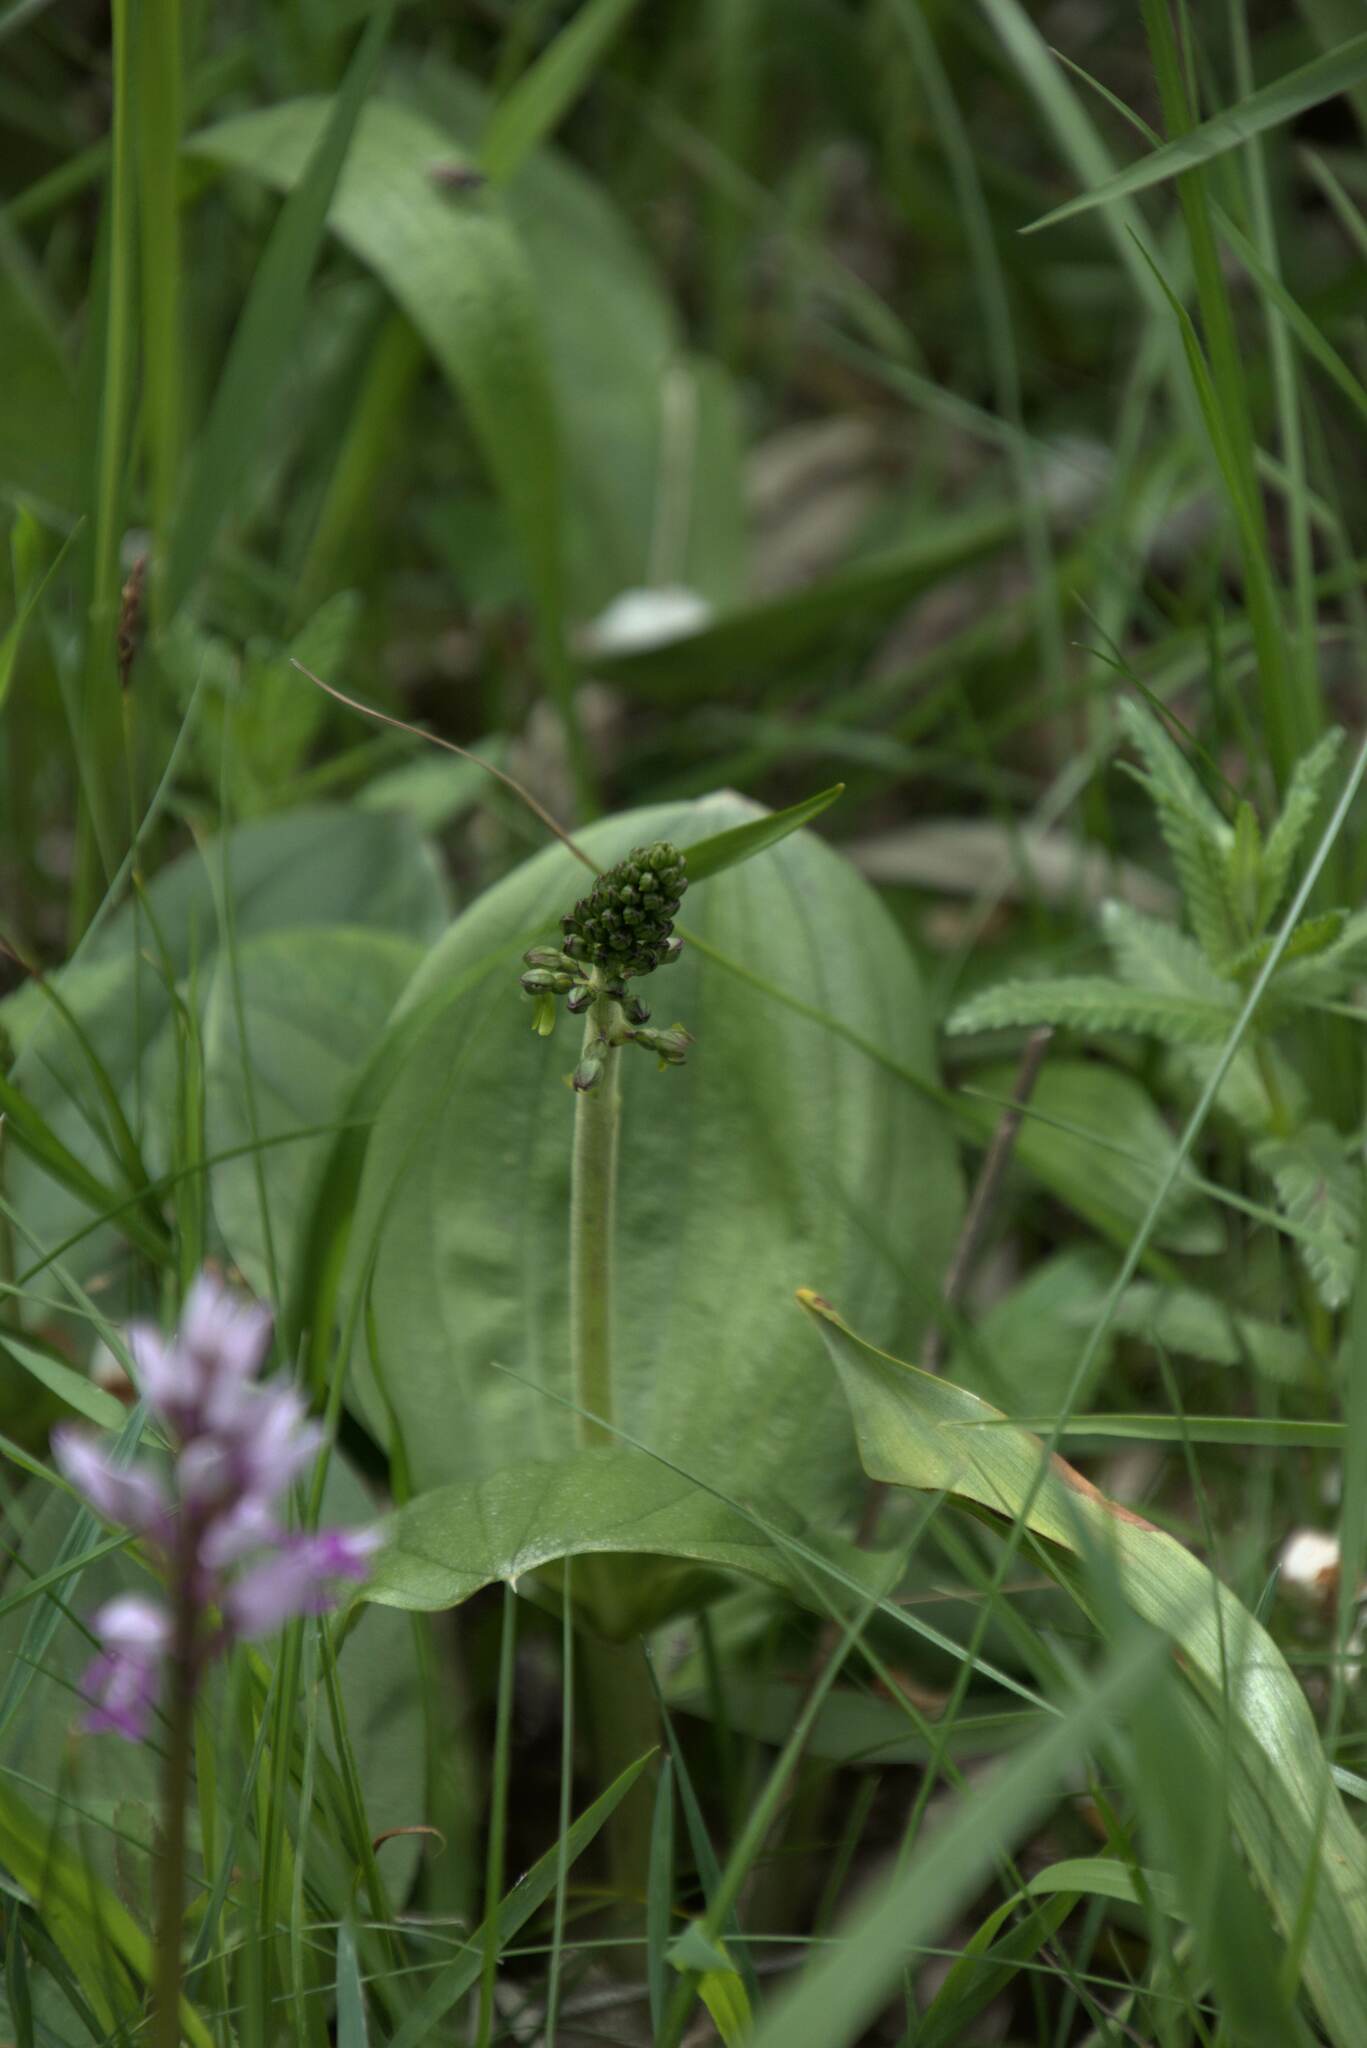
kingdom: Plantae
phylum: Tracheophyta
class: Liliopsida
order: Asparagales
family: Orchidaceae
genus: Neottia
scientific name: Neottia ovata
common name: Common twayblade
